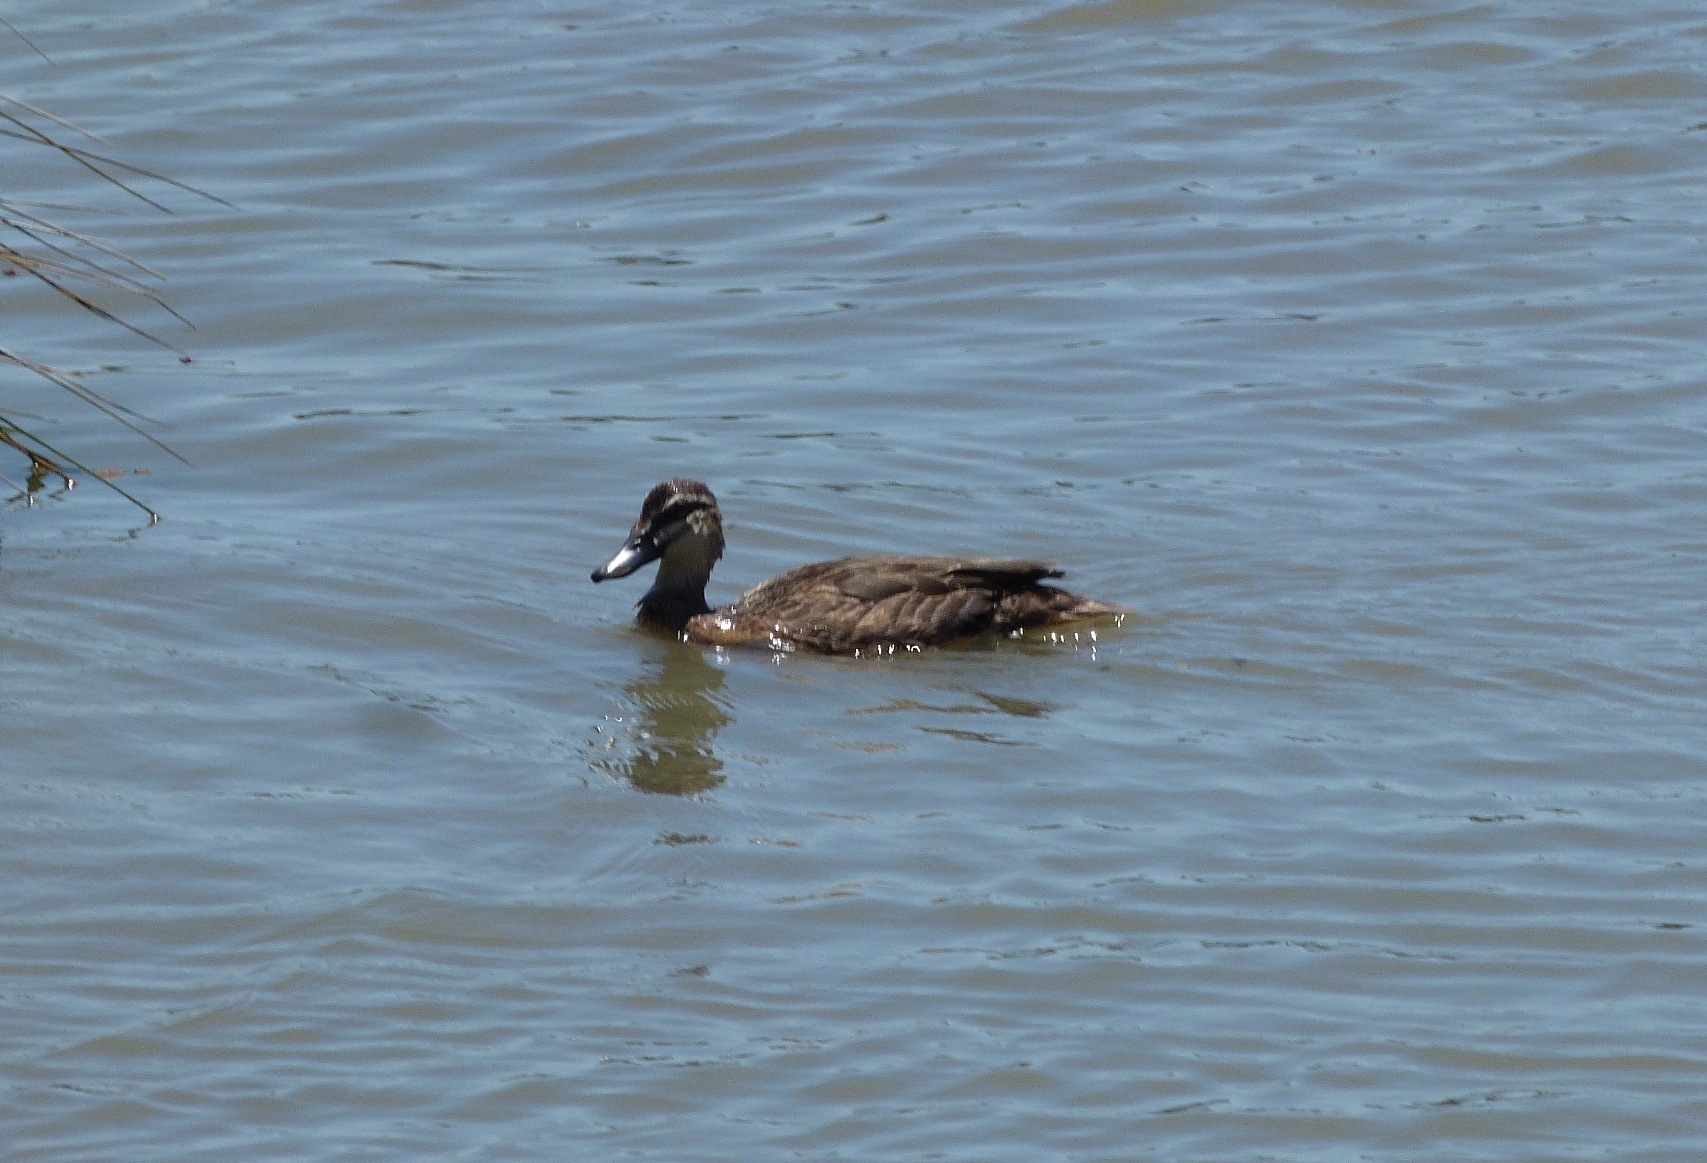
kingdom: Animalia
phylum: Chordata
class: Aves
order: Anseriformes
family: Anatidae
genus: Anas
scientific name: Anas superciliosa
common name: Pacific black duck
